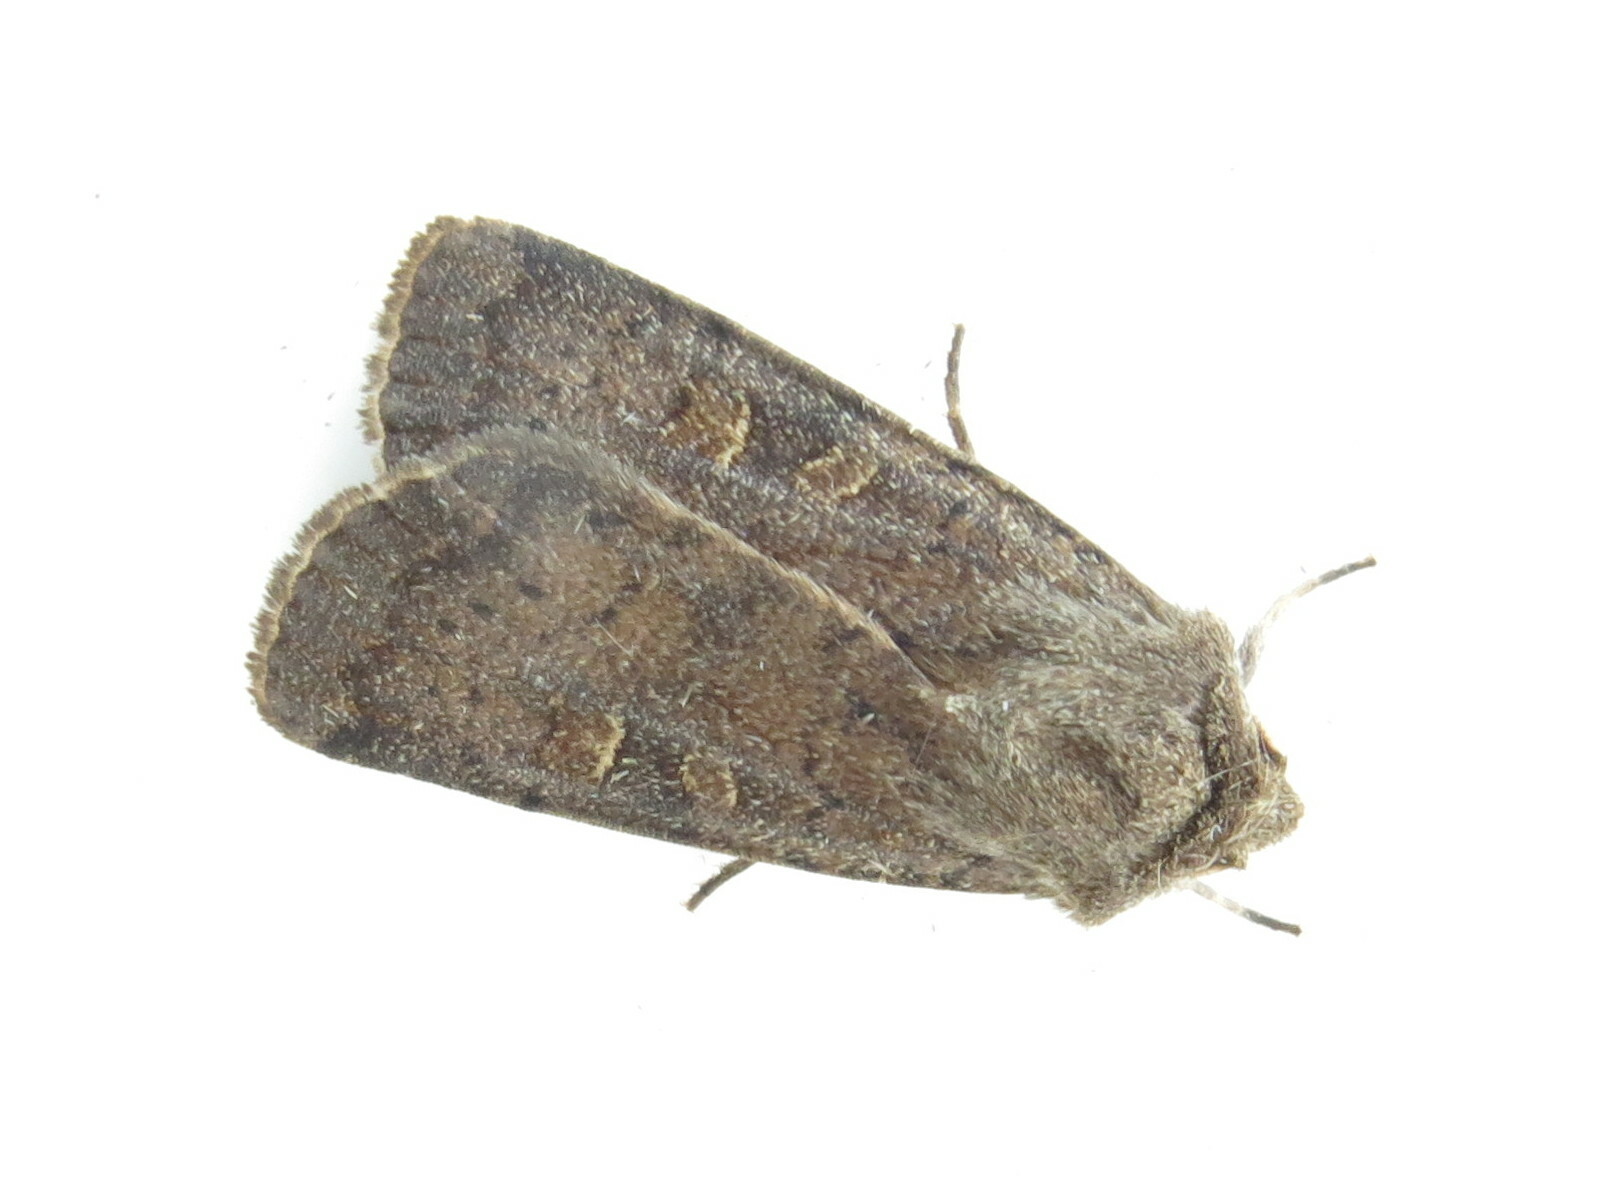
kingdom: Animalia
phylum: Arthropoda
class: Insecta
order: Lepidoptera
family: Noctuidae
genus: Xestia
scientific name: Xestia xanthographa
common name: Square-spot rustic
